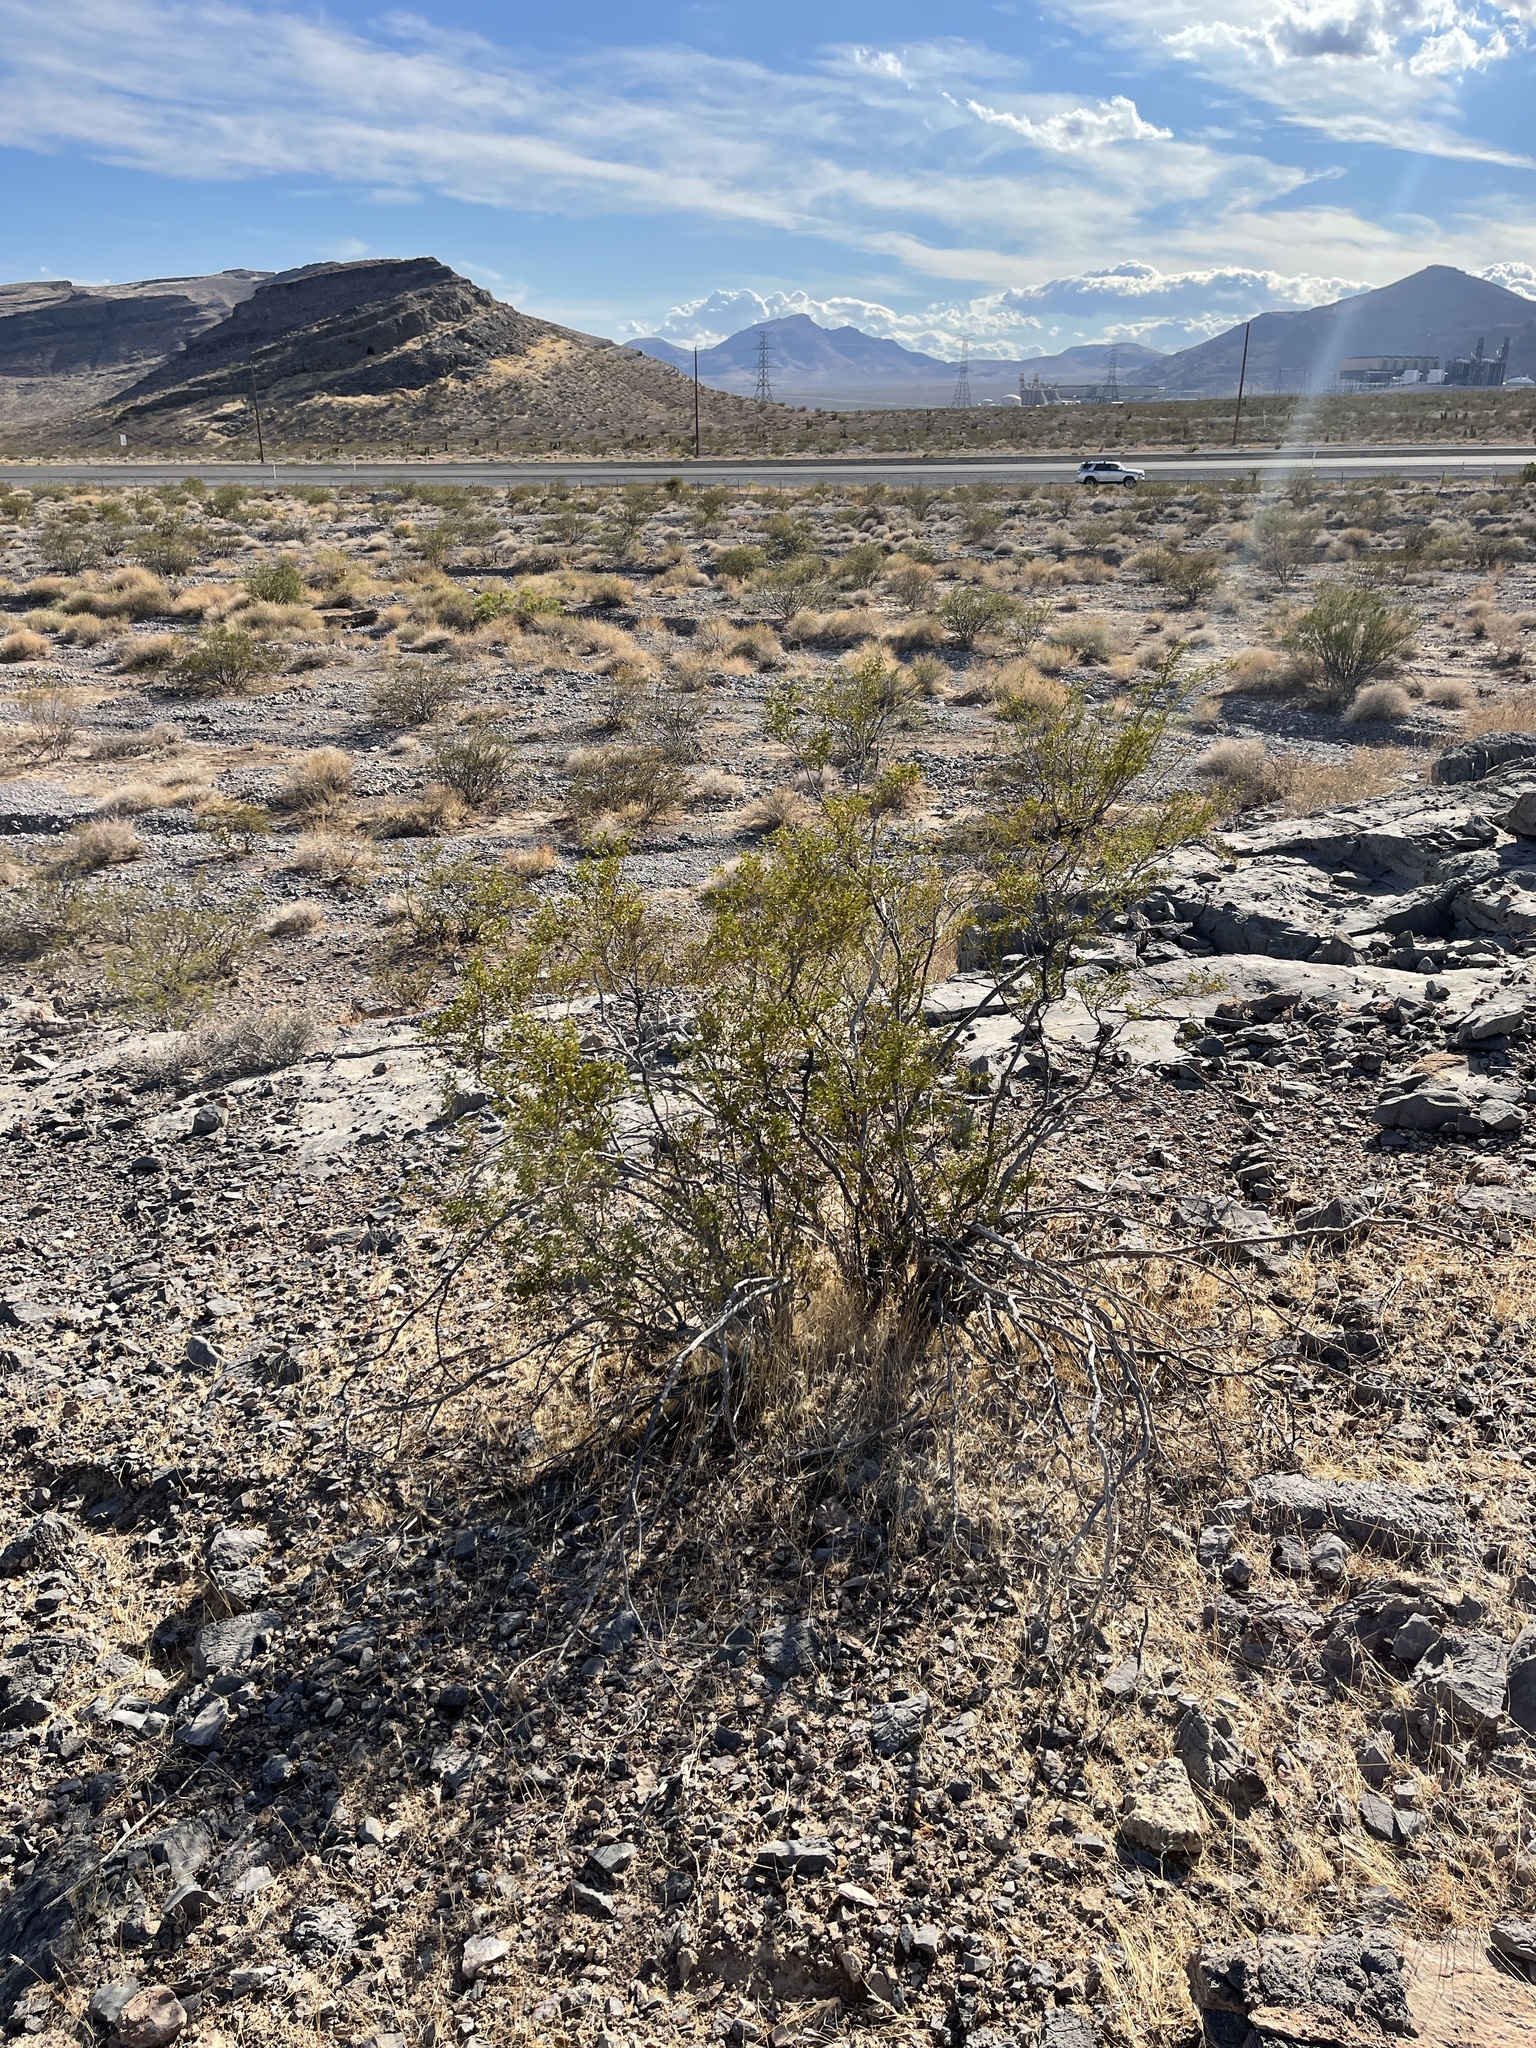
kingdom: Plantae
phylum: Tracheophyta
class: Magnoliopsida
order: Zygophyllales
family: Zygophyllaceae
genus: Larrea
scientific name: Larrea tridentata
